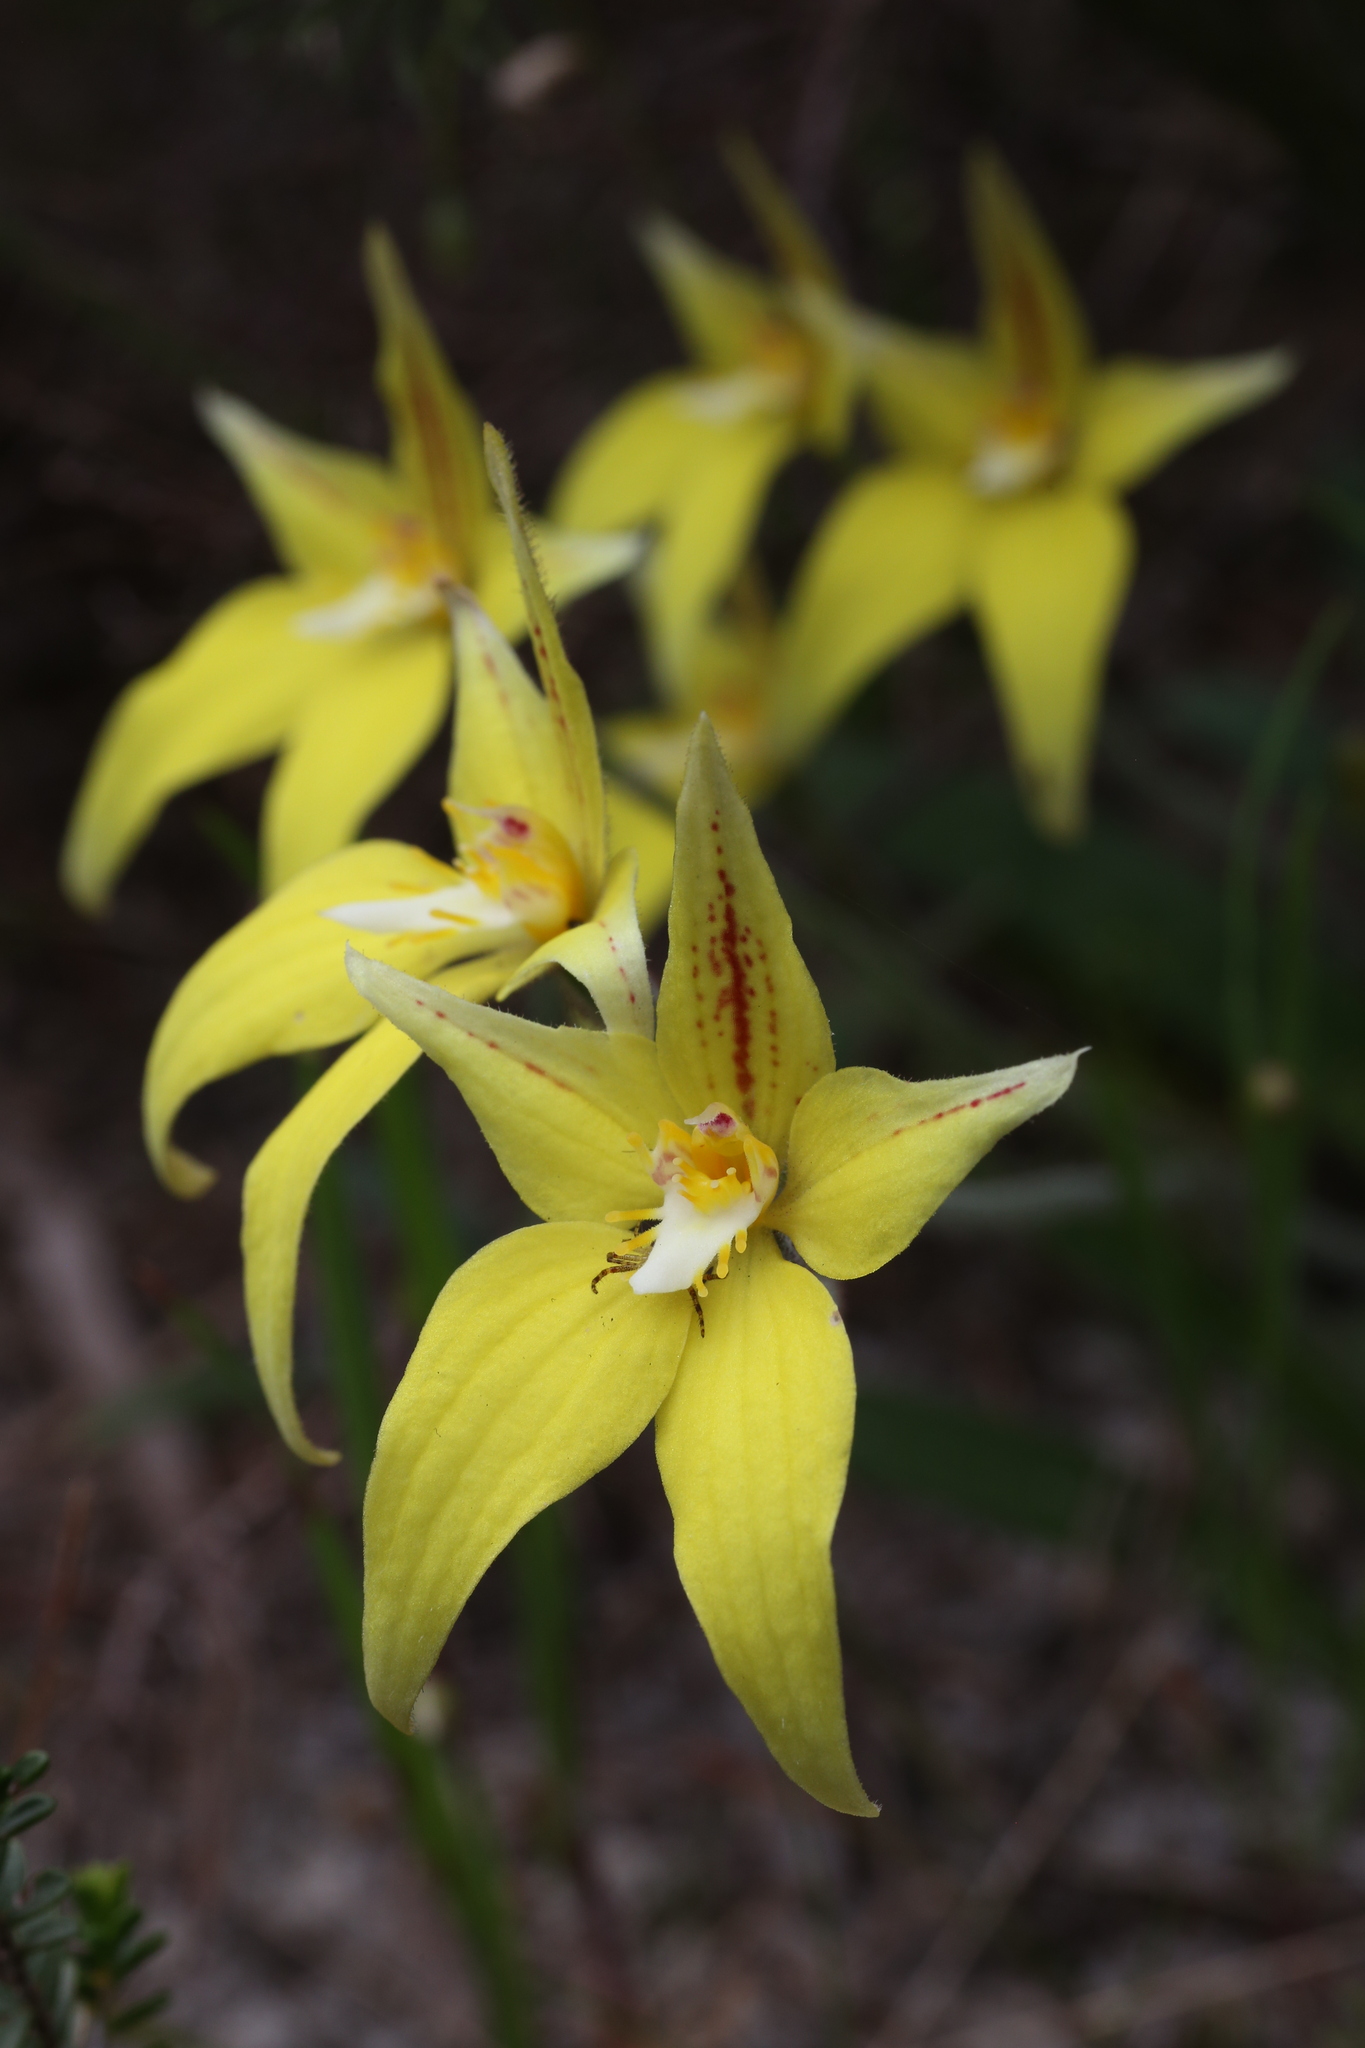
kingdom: Plantae
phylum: Tracheophyta
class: Liliopsida
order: Asparagales
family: Orchidaceae
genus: Caladenia
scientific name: Caladenia flava
